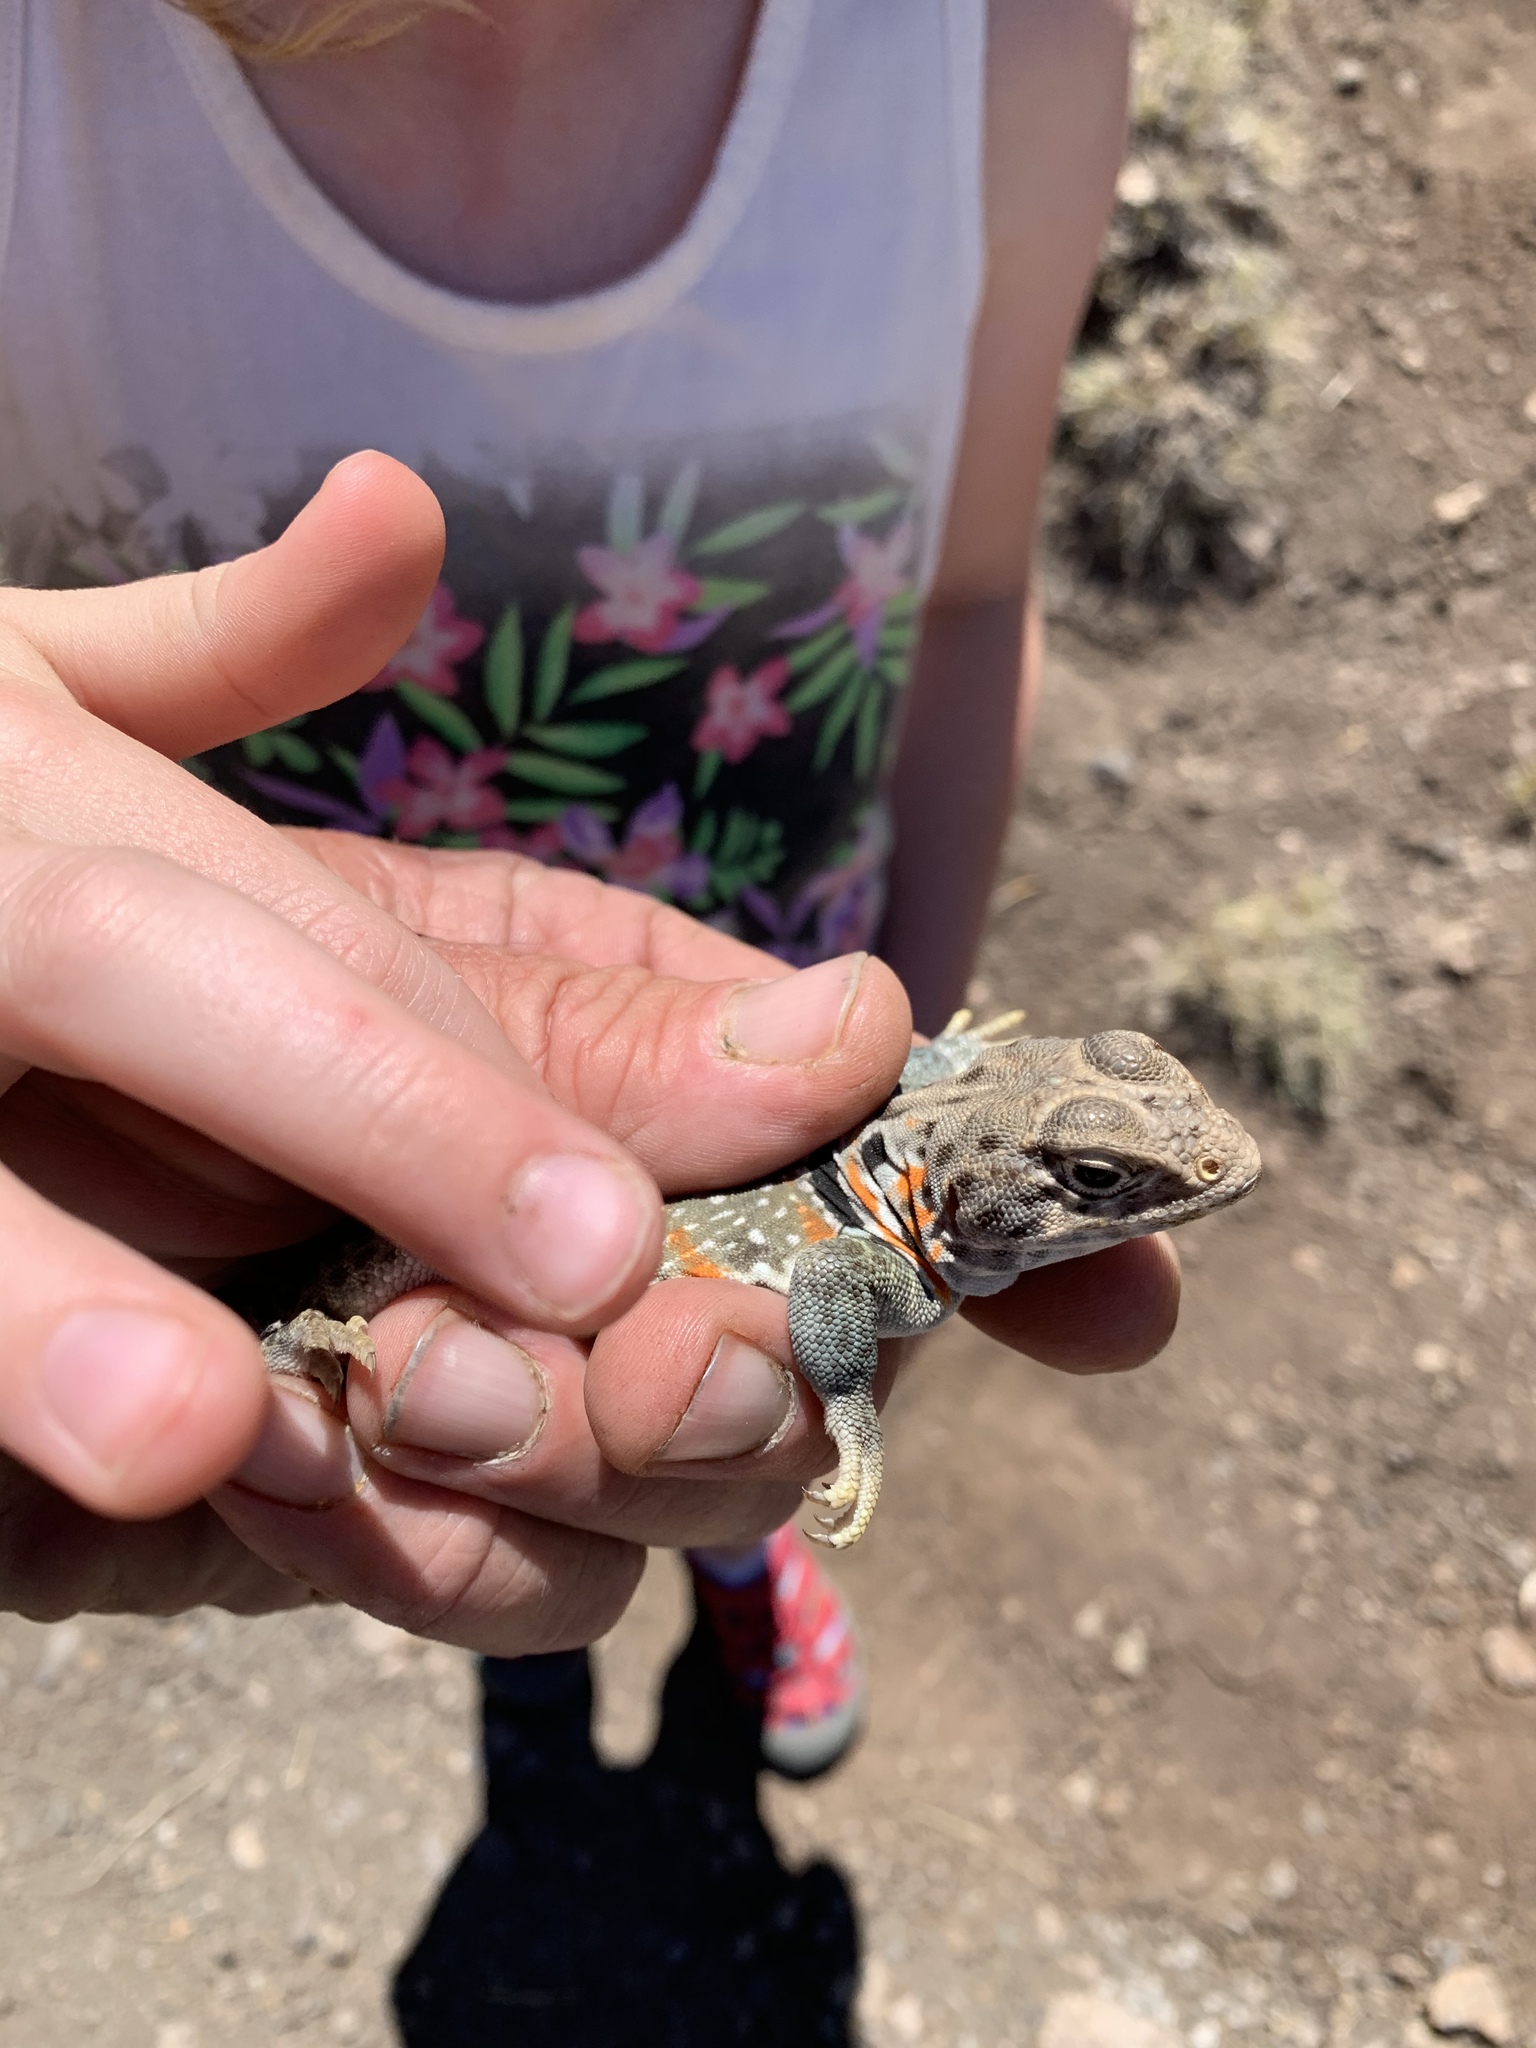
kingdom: Animalia
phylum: Chordata
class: Squamata
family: Crotaphytidae
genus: Crotaphytus
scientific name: Crotaphytus collaris
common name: Collared lizard
